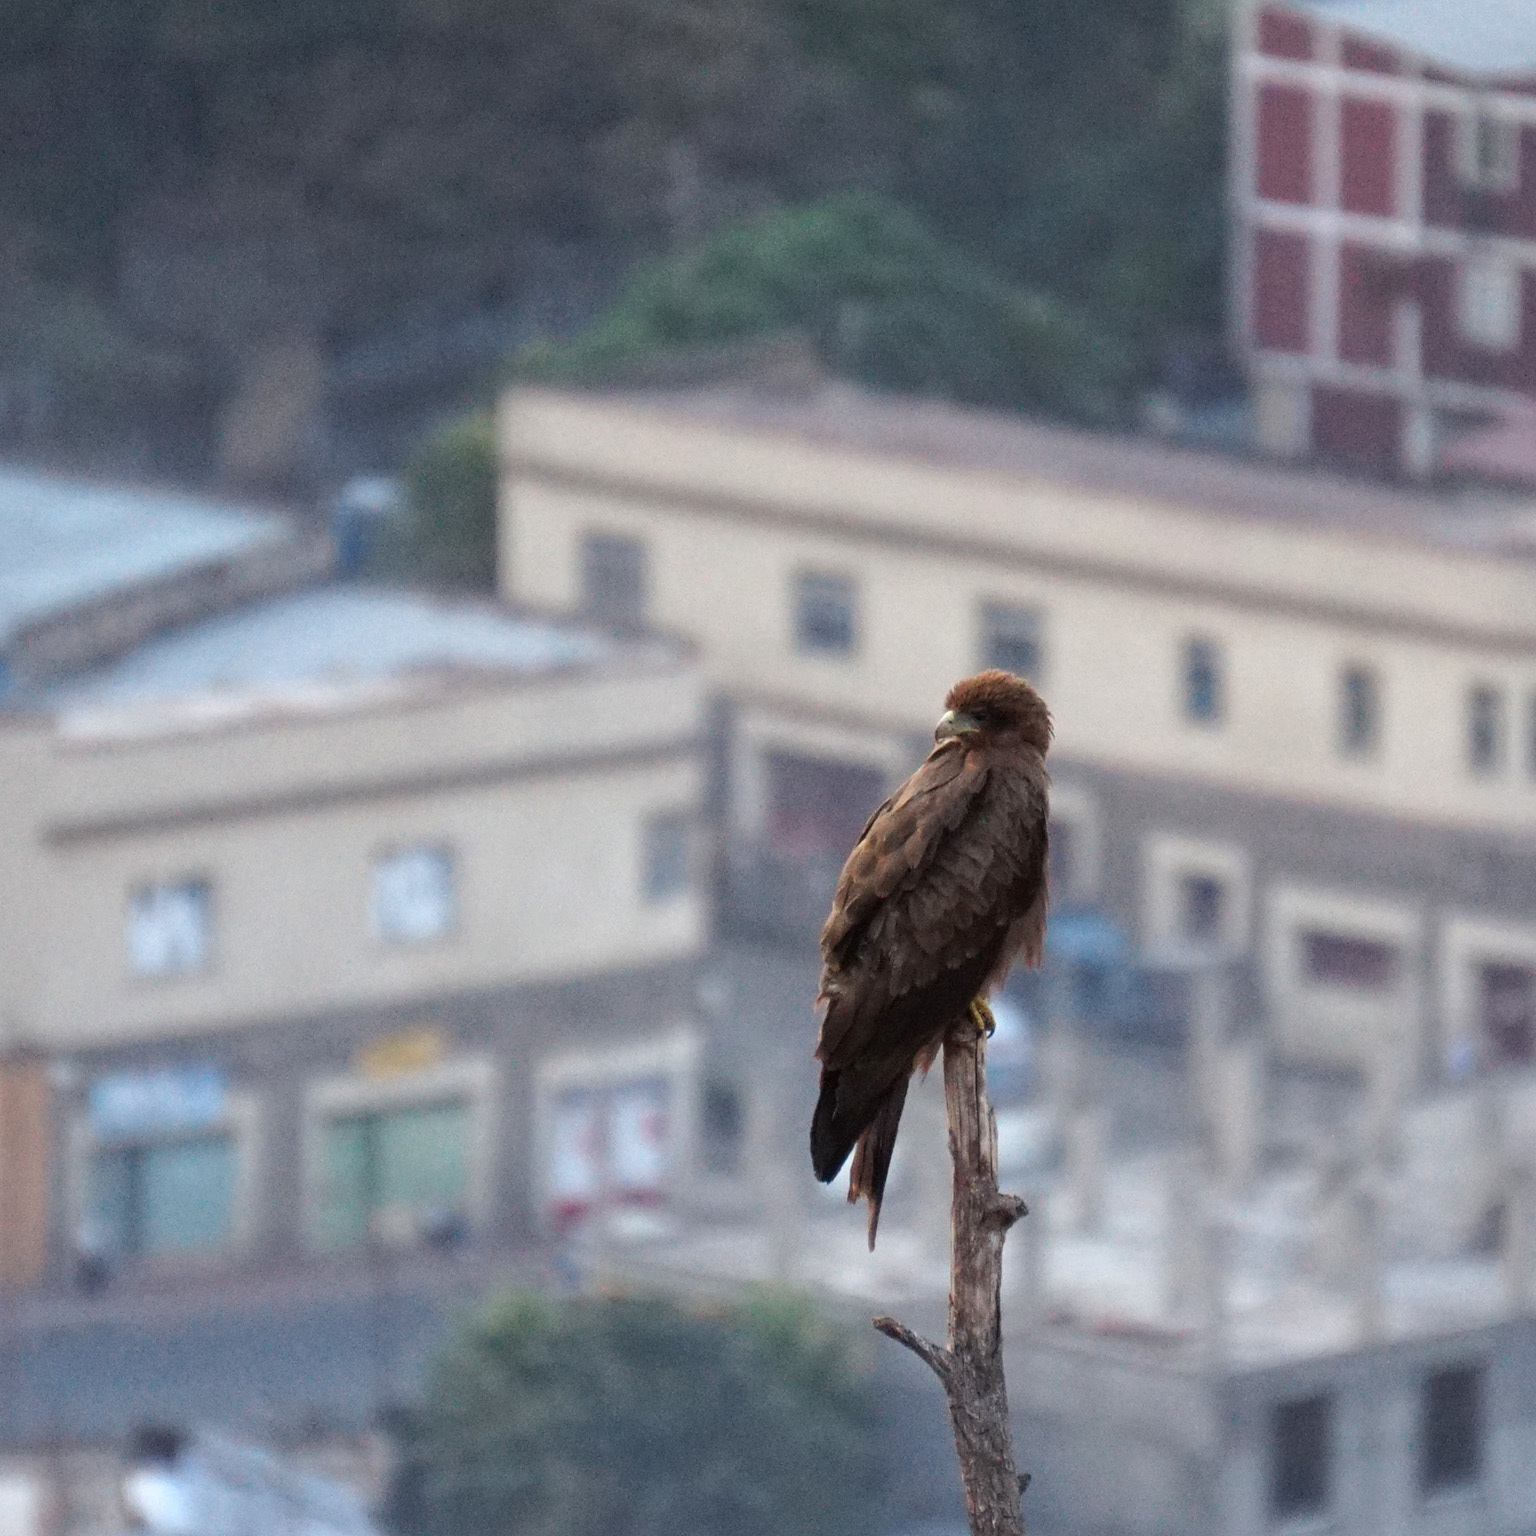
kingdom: Animalia
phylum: Chordata
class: Aves
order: Accipitriformes
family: Accipitridae
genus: Milvus
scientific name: Milvus migrans
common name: Black kite
